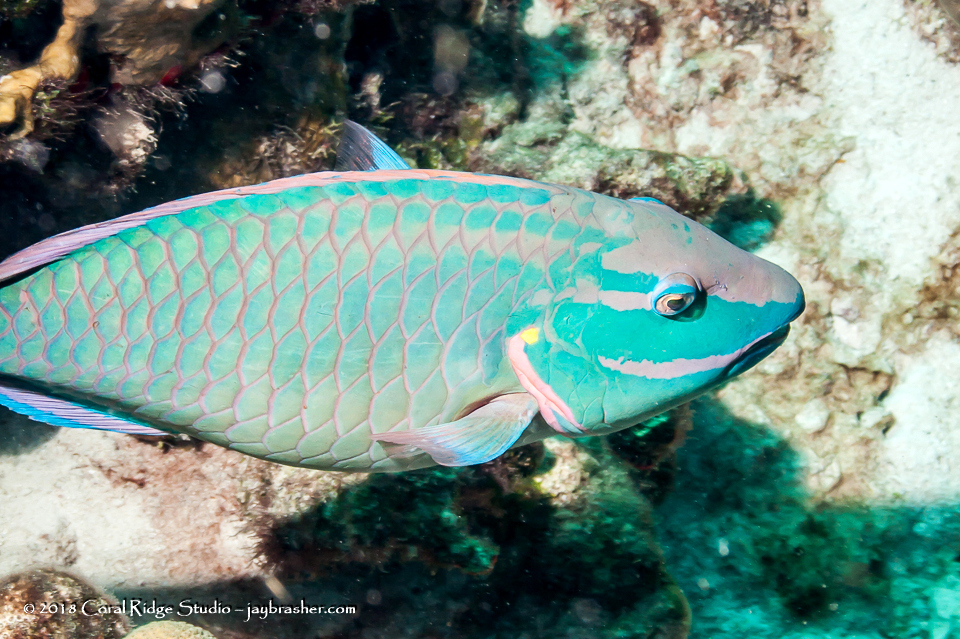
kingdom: Animalia
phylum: Chordata
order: Perciformes
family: Scaridae
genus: Sparisoma
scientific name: Sparisoma viride
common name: Stoplight parrotfish
